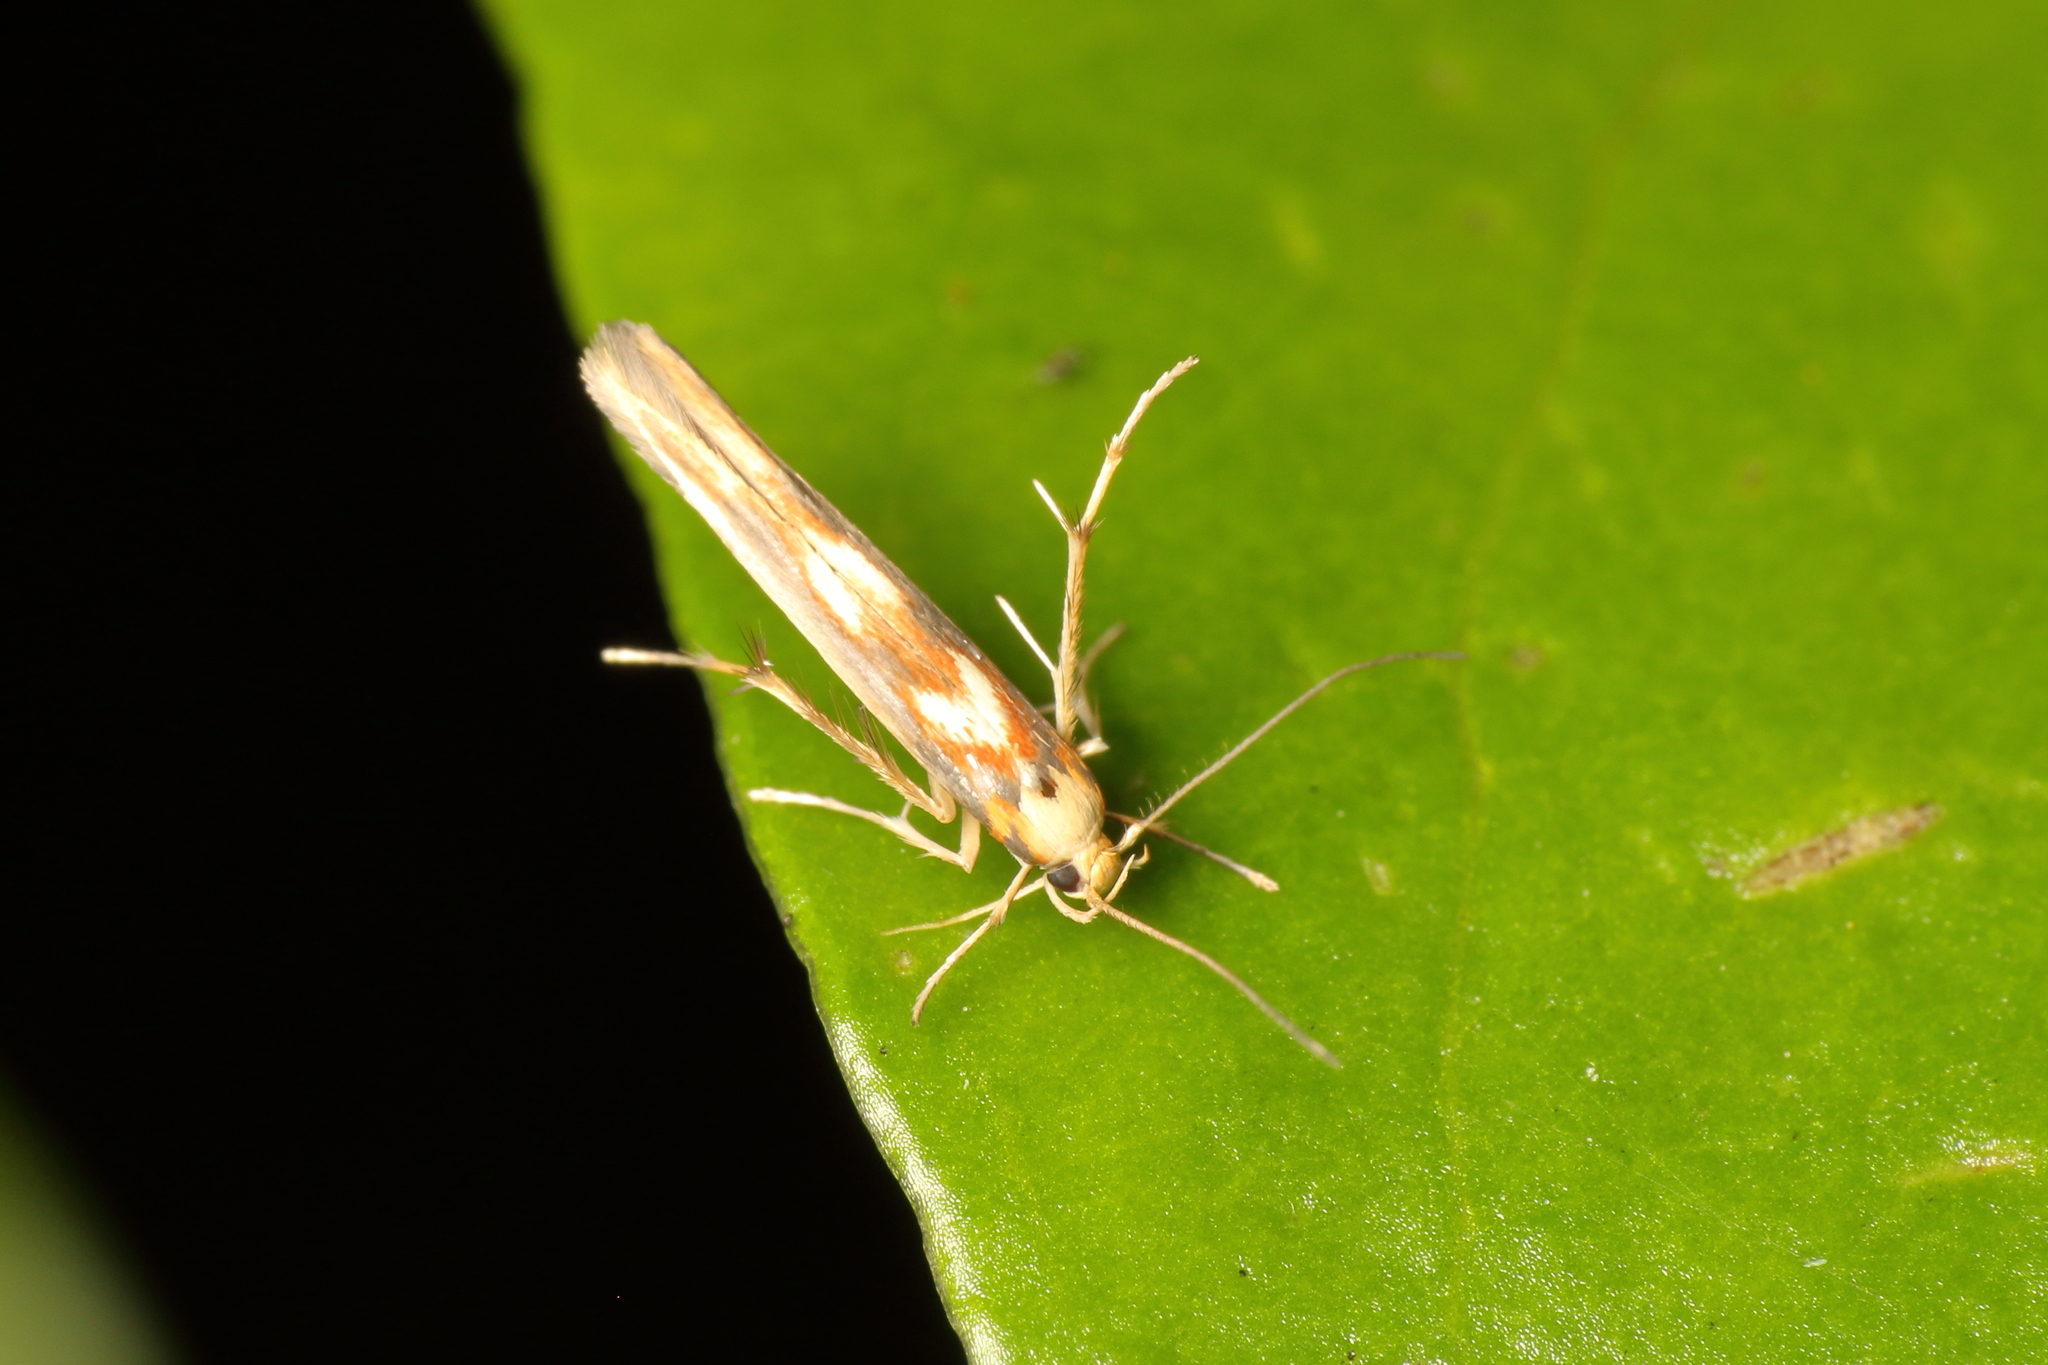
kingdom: Animalia
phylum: Arthropoda
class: Insecta
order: Lepidoptera
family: Stathmopodidae
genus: Stathmopoda
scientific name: Stathmopoda caminora
